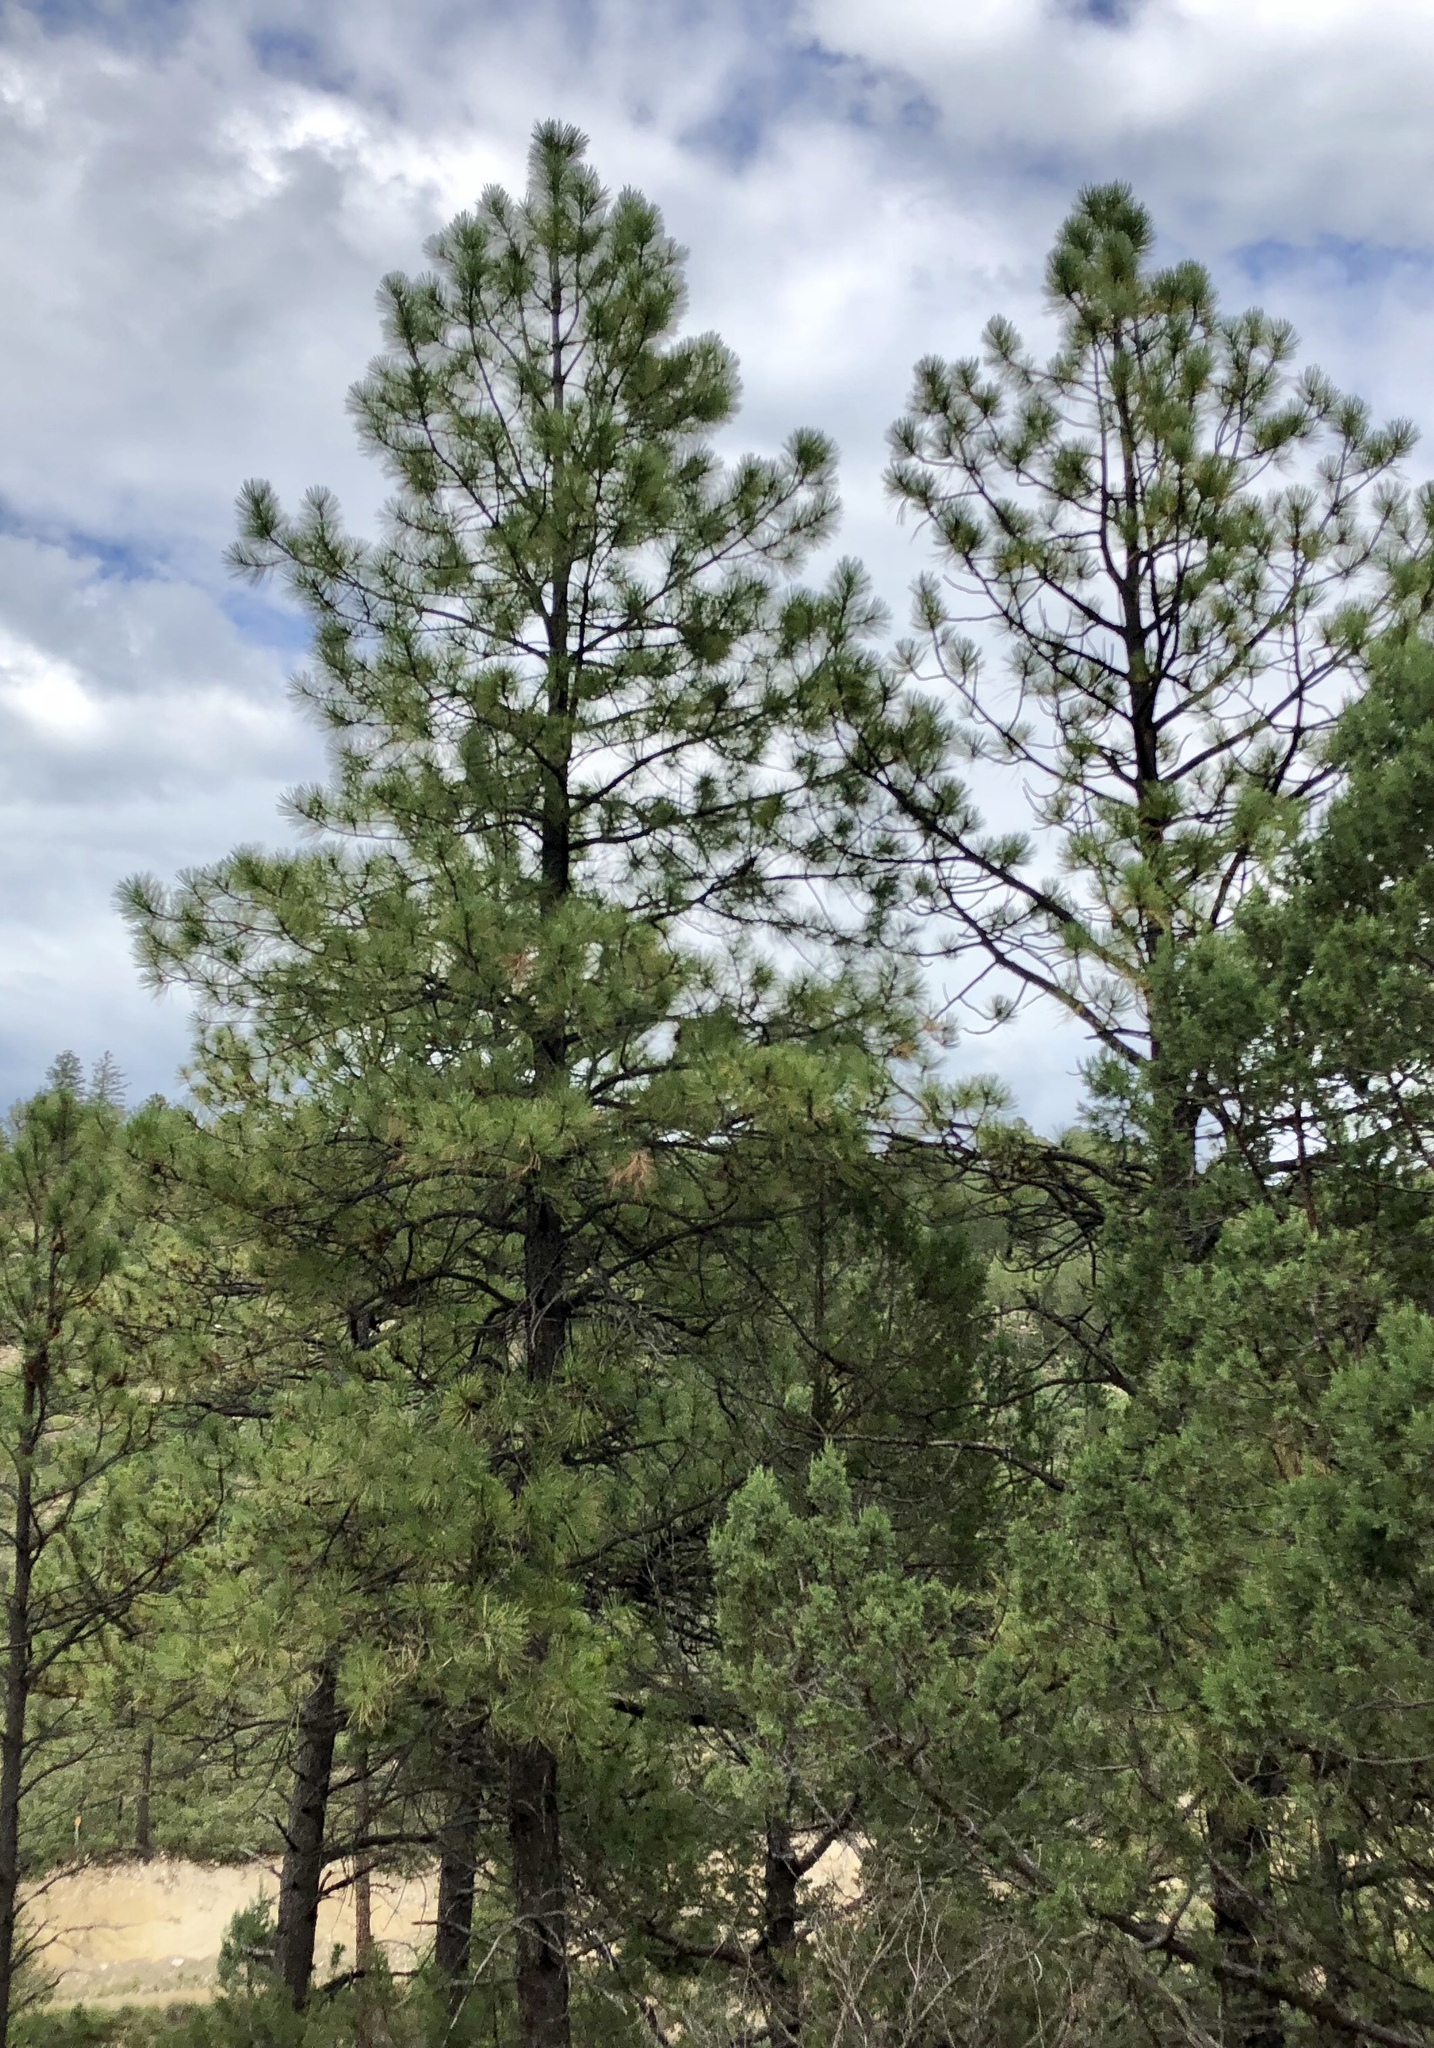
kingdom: Plantae
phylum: Tracheophyta
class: Pinopsida
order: Pinales
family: Pinaceae
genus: Pinus
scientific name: Pinus ponderosa
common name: Western yellow-pine
